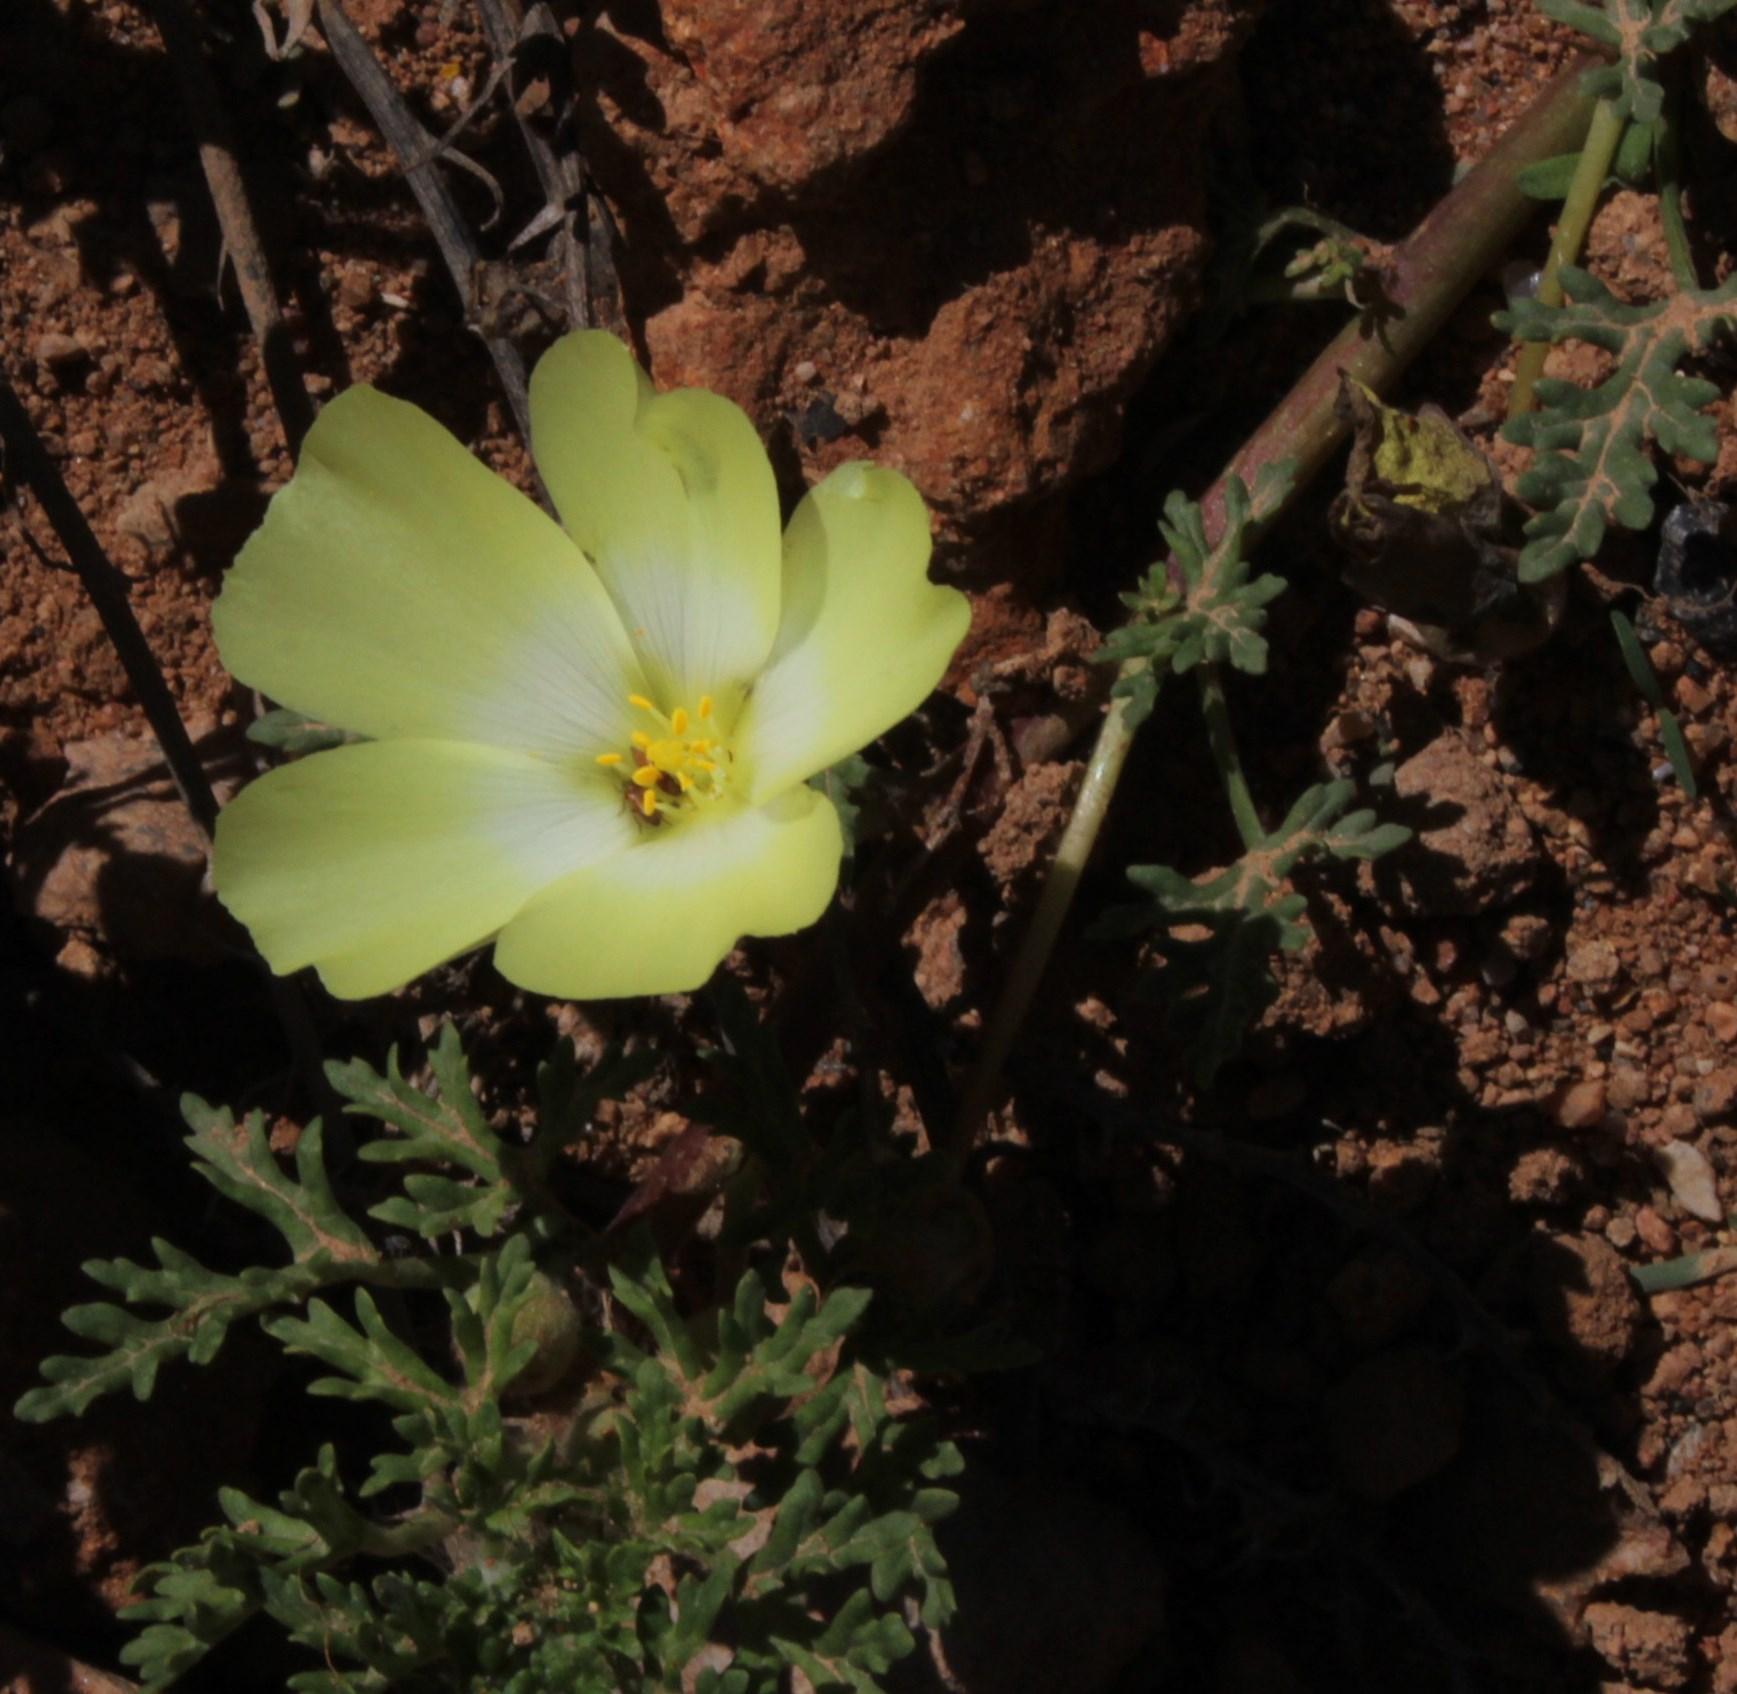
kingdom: Plantae
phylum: Tracheophyta
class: Magnoliopsida
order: Malvales
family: Neuradaceae
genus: Grielum
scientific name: Grielum humifusum
